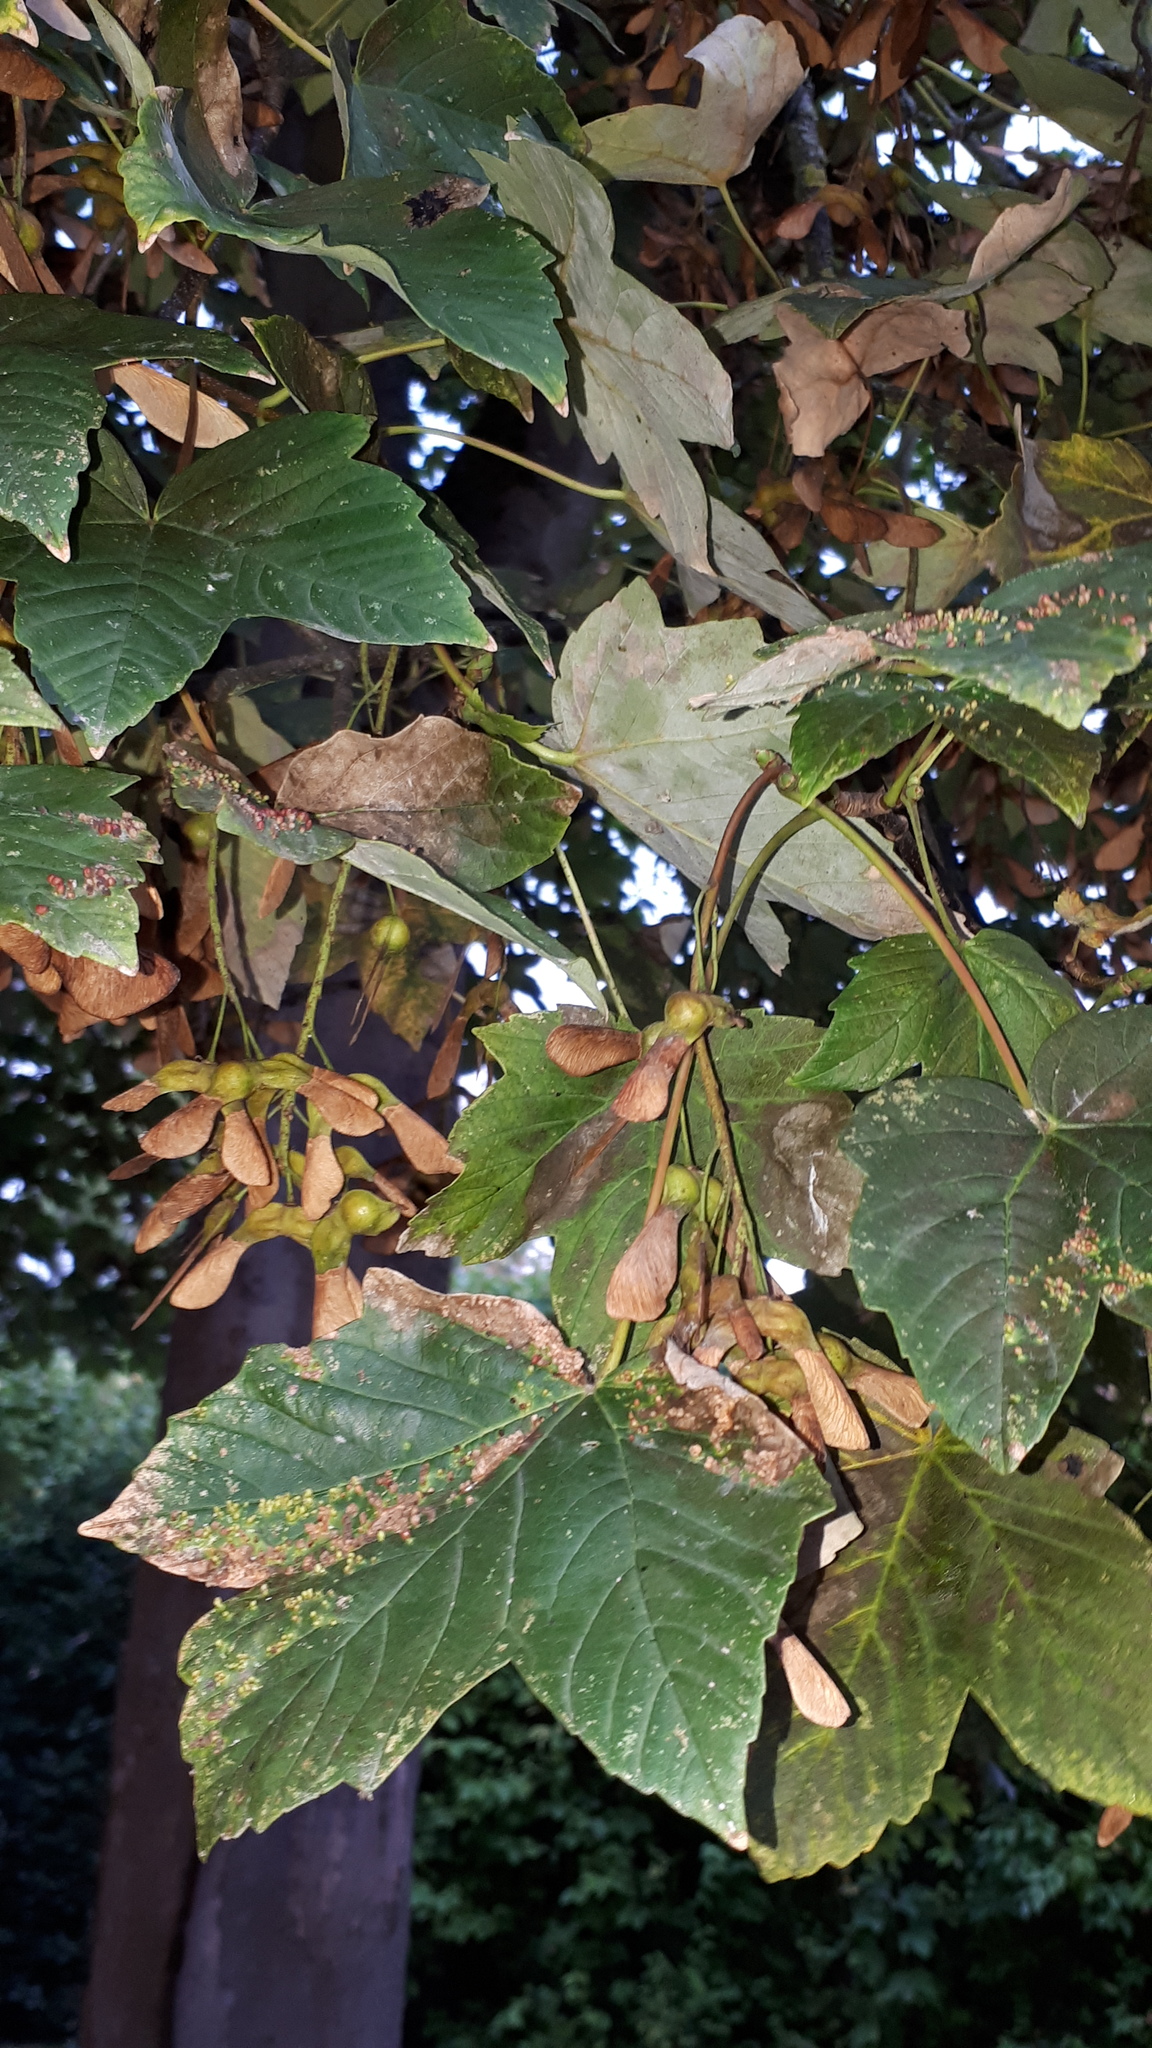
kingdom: Plantae
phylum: Tracheophyta
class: Magnoliopsida
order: Sapindales
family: Sapindaceae
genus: Acer
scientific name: Acer pseudoplatanus
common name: Sycamore
